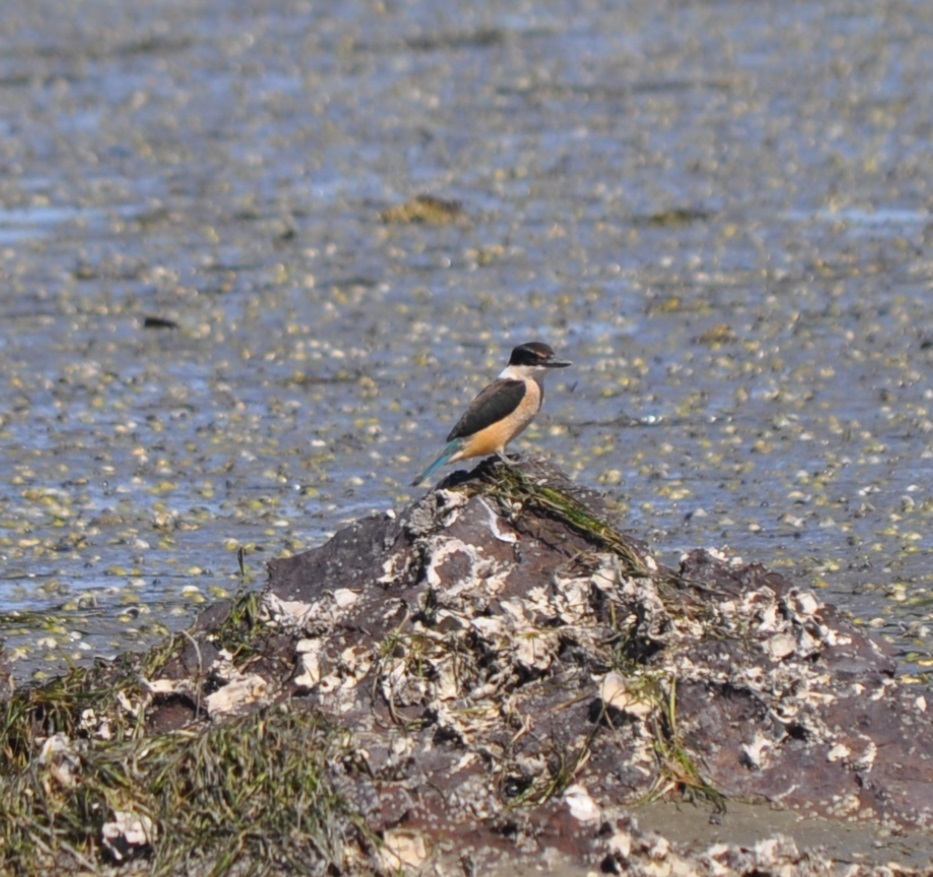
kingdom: Animalia
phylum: Chordata
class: Aves
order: Coraciiformes
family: Alcedinidae
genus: Todiramphus
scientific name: Todiramphus sanctus
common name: Sacred kingfisher
